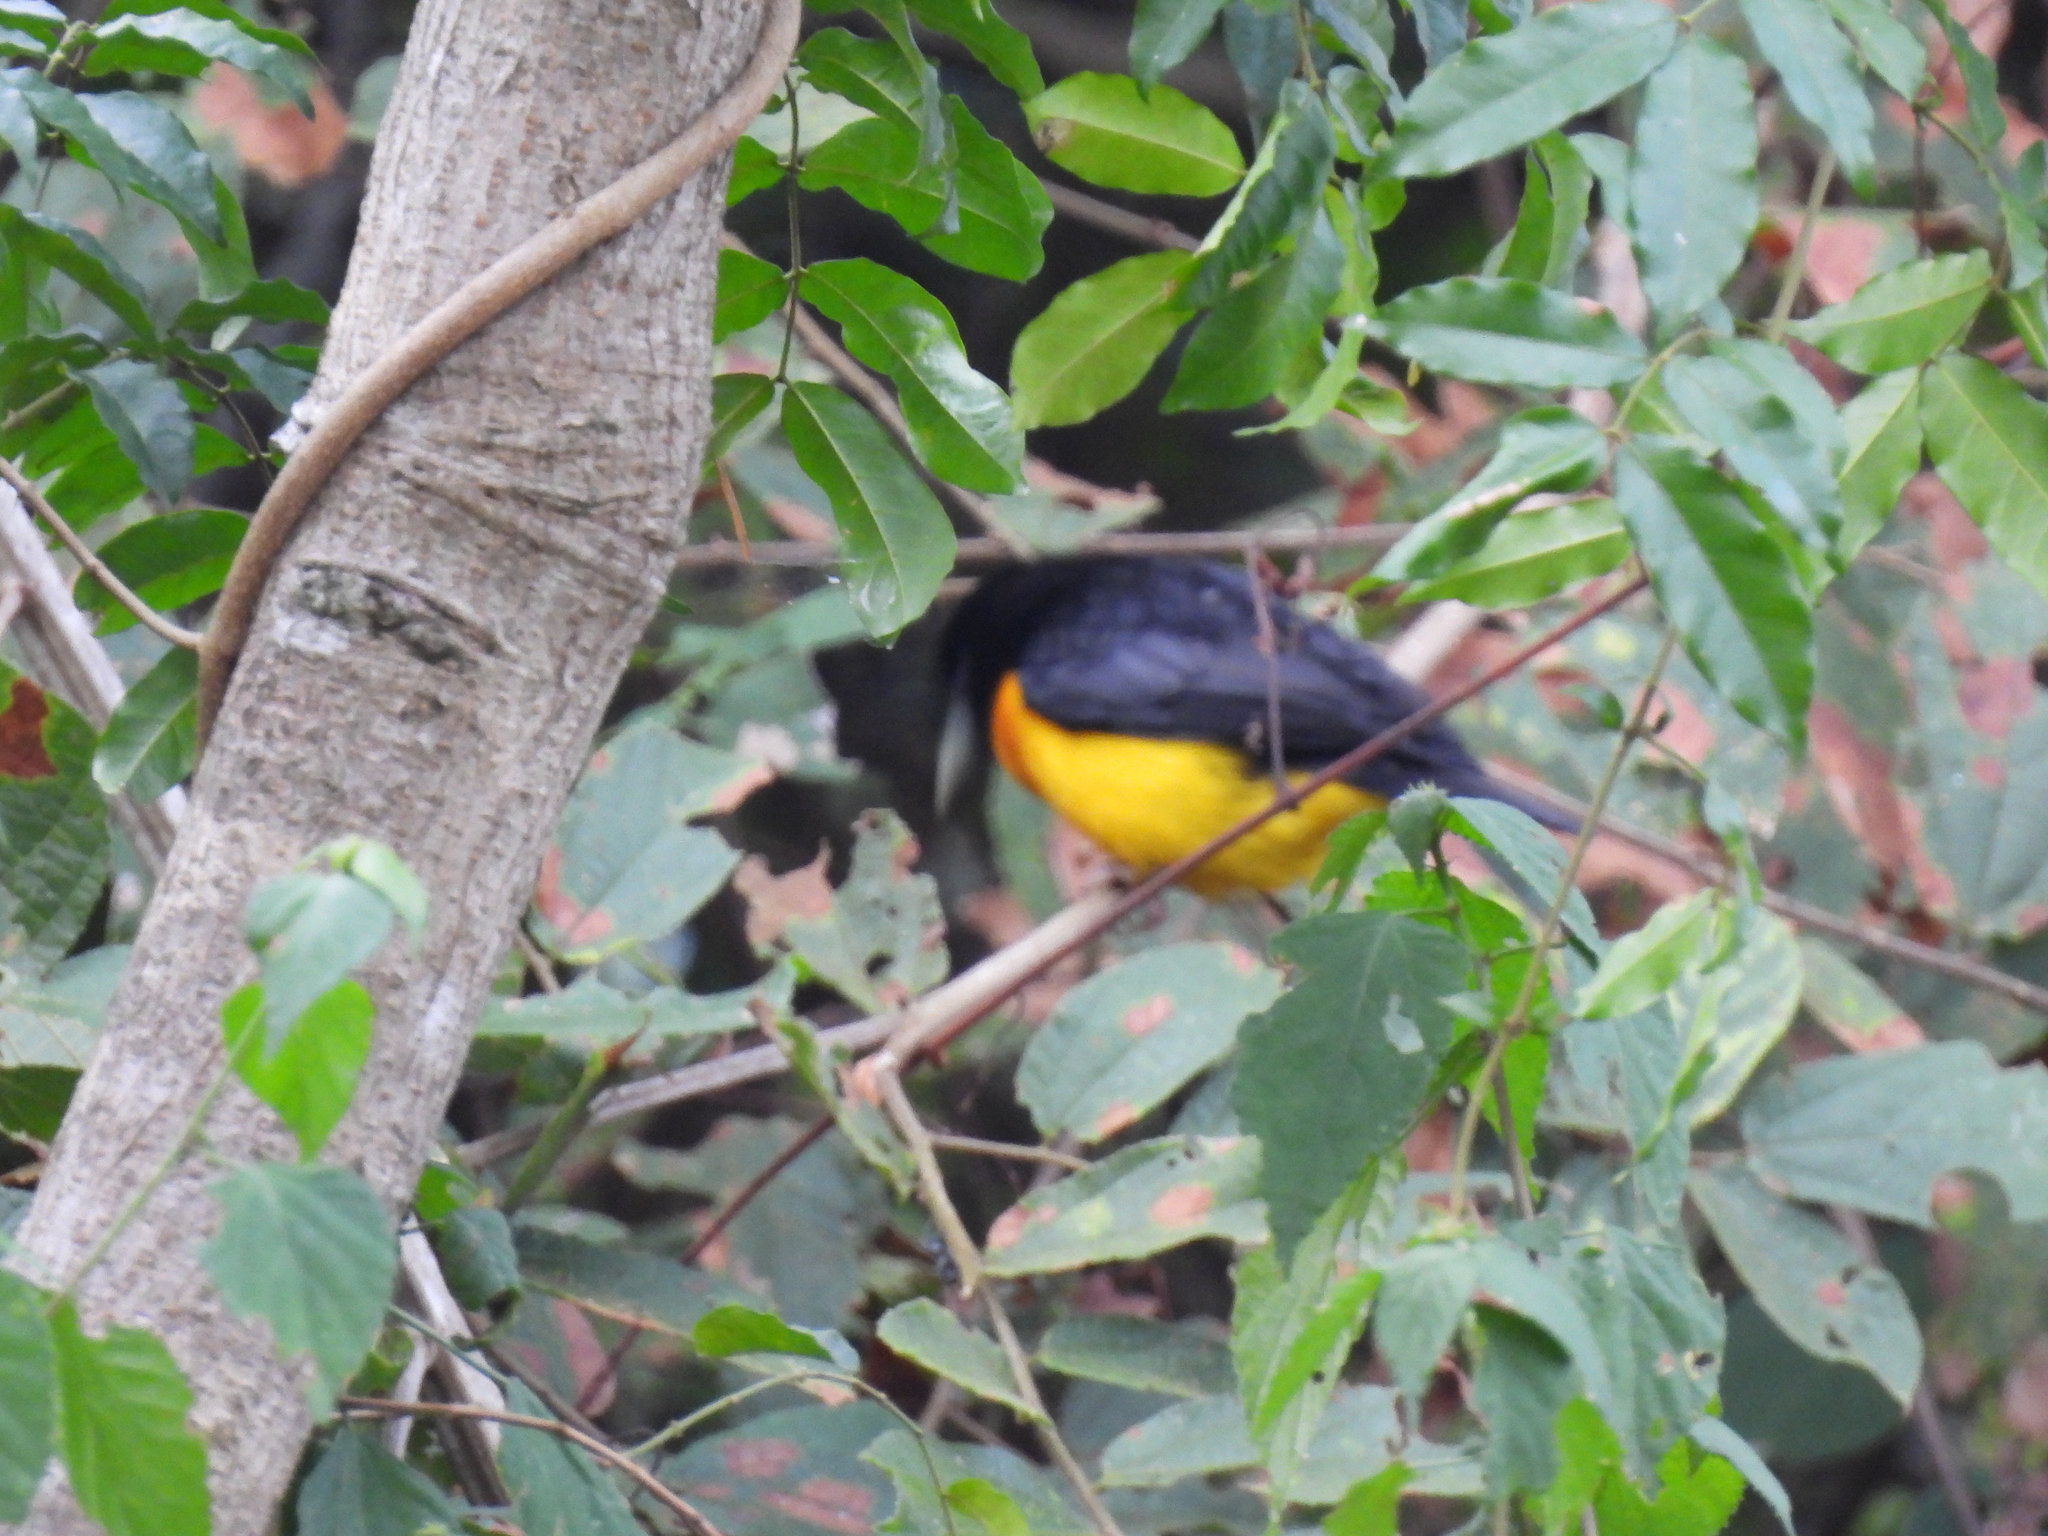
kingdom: Animalia
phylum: Chordata
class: Aves
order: Passeriformes
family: Ploceidae
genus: Ploceus
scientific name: Ploceus bicolor
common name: Dark-backed weaver
